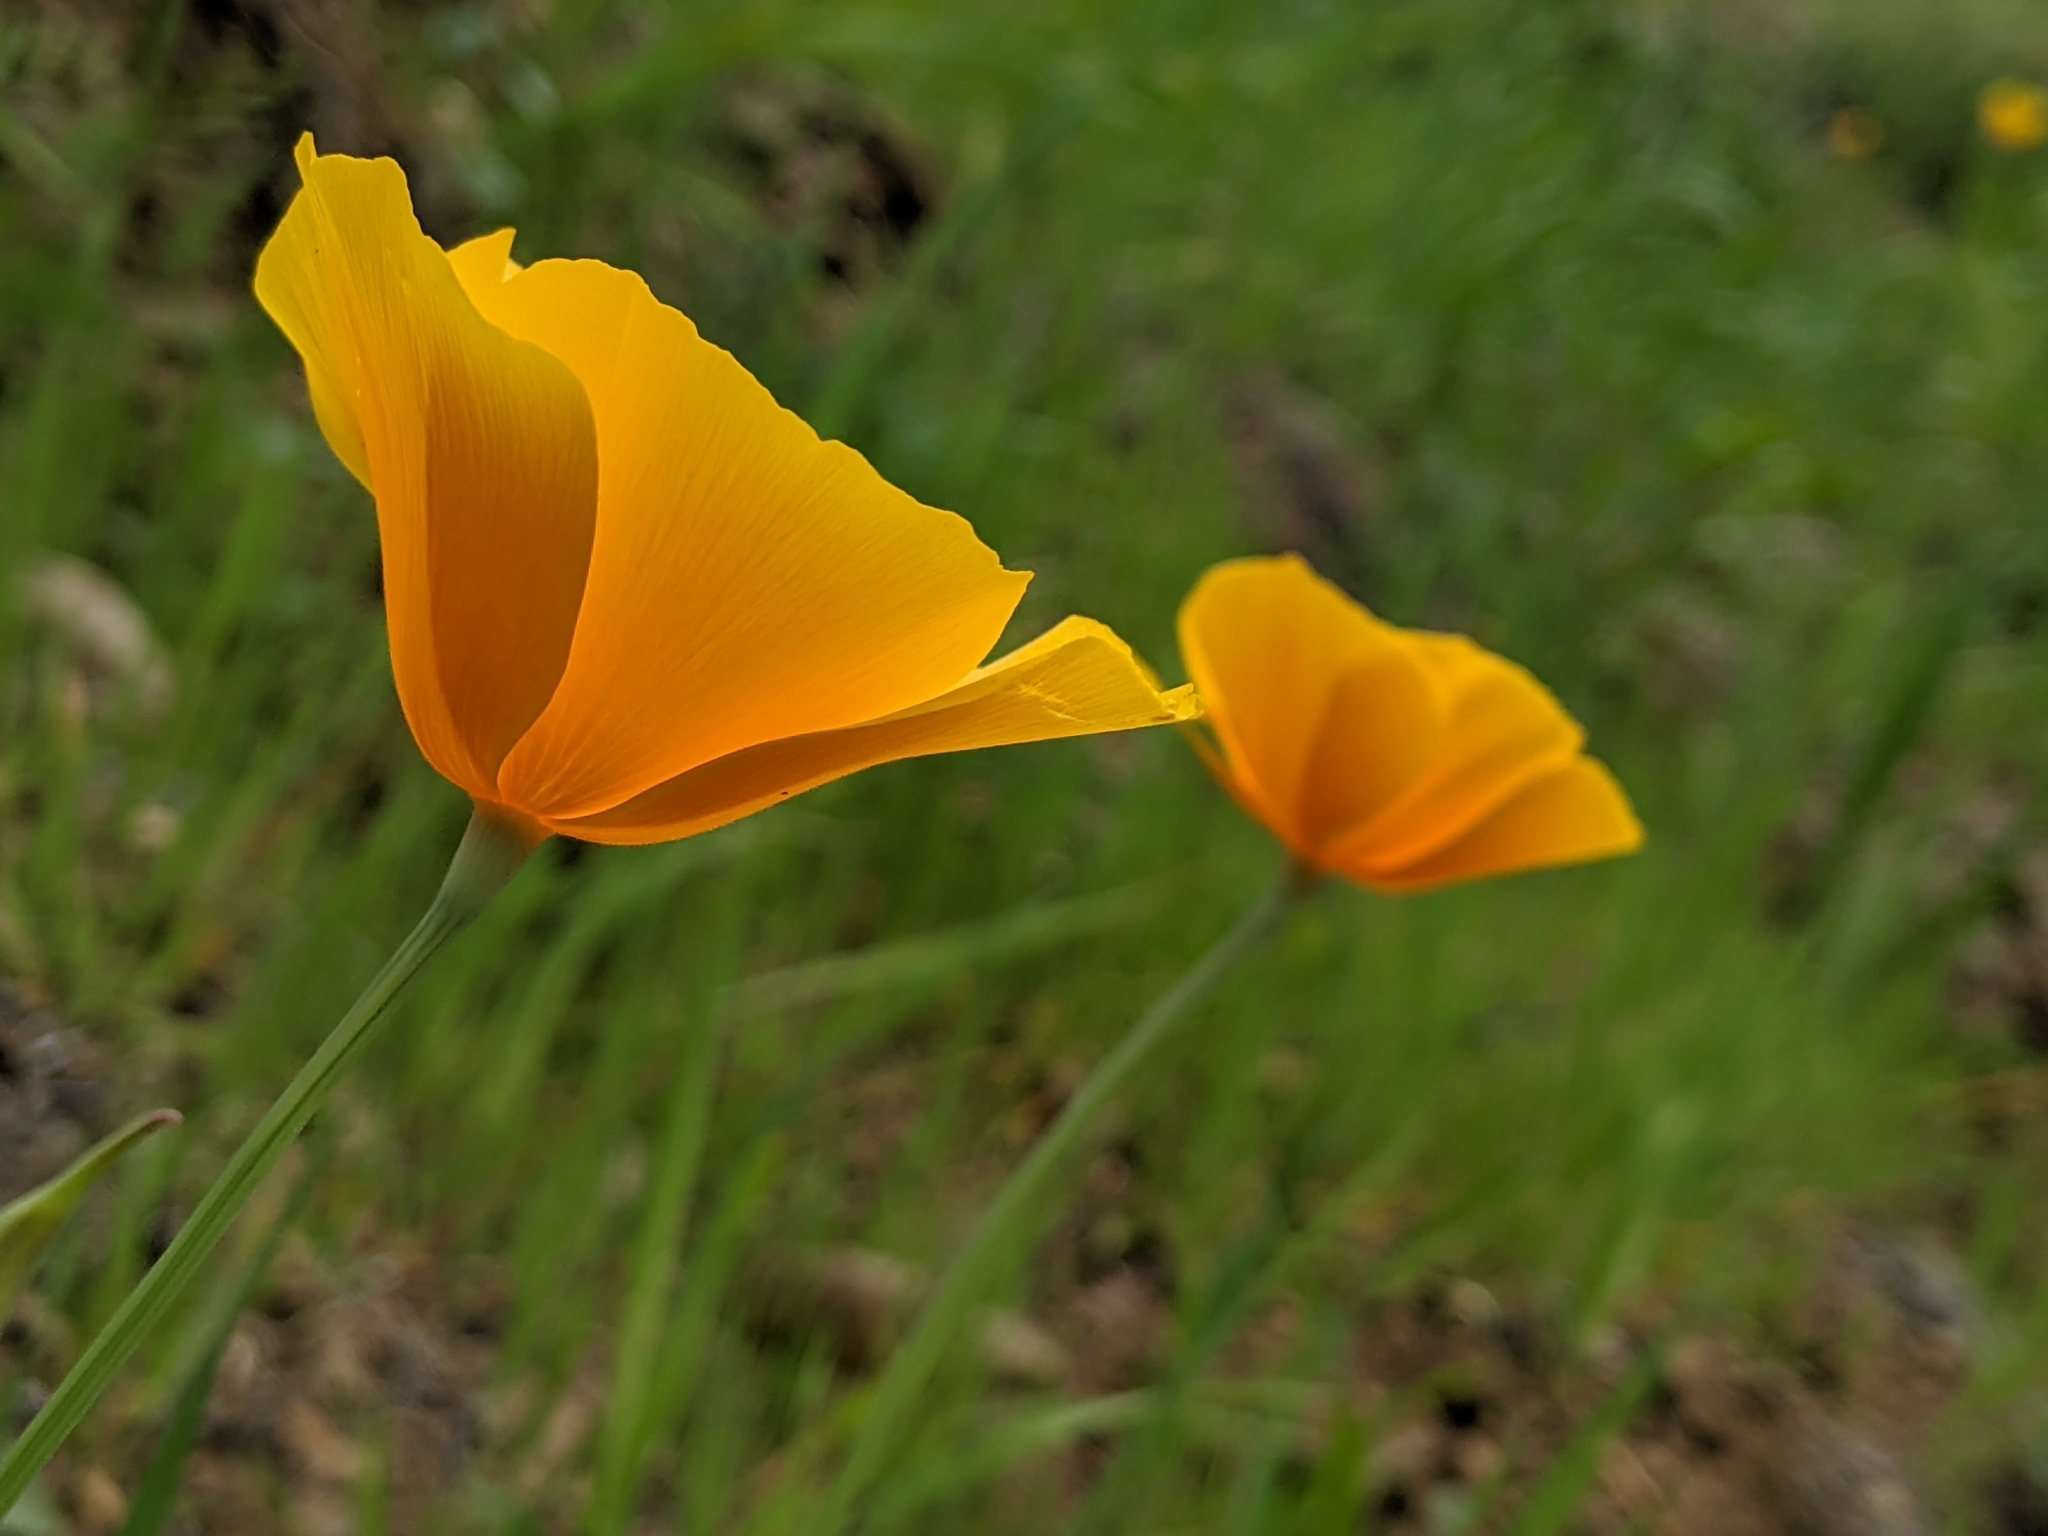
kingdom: Plantae
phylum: Tracheophyta
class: Magnoliopsida
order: Ranunculales
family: Papaveraceae
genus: Eschscholzia
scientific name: Eschscholzia caespitosa
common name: Tufted california-poppy
